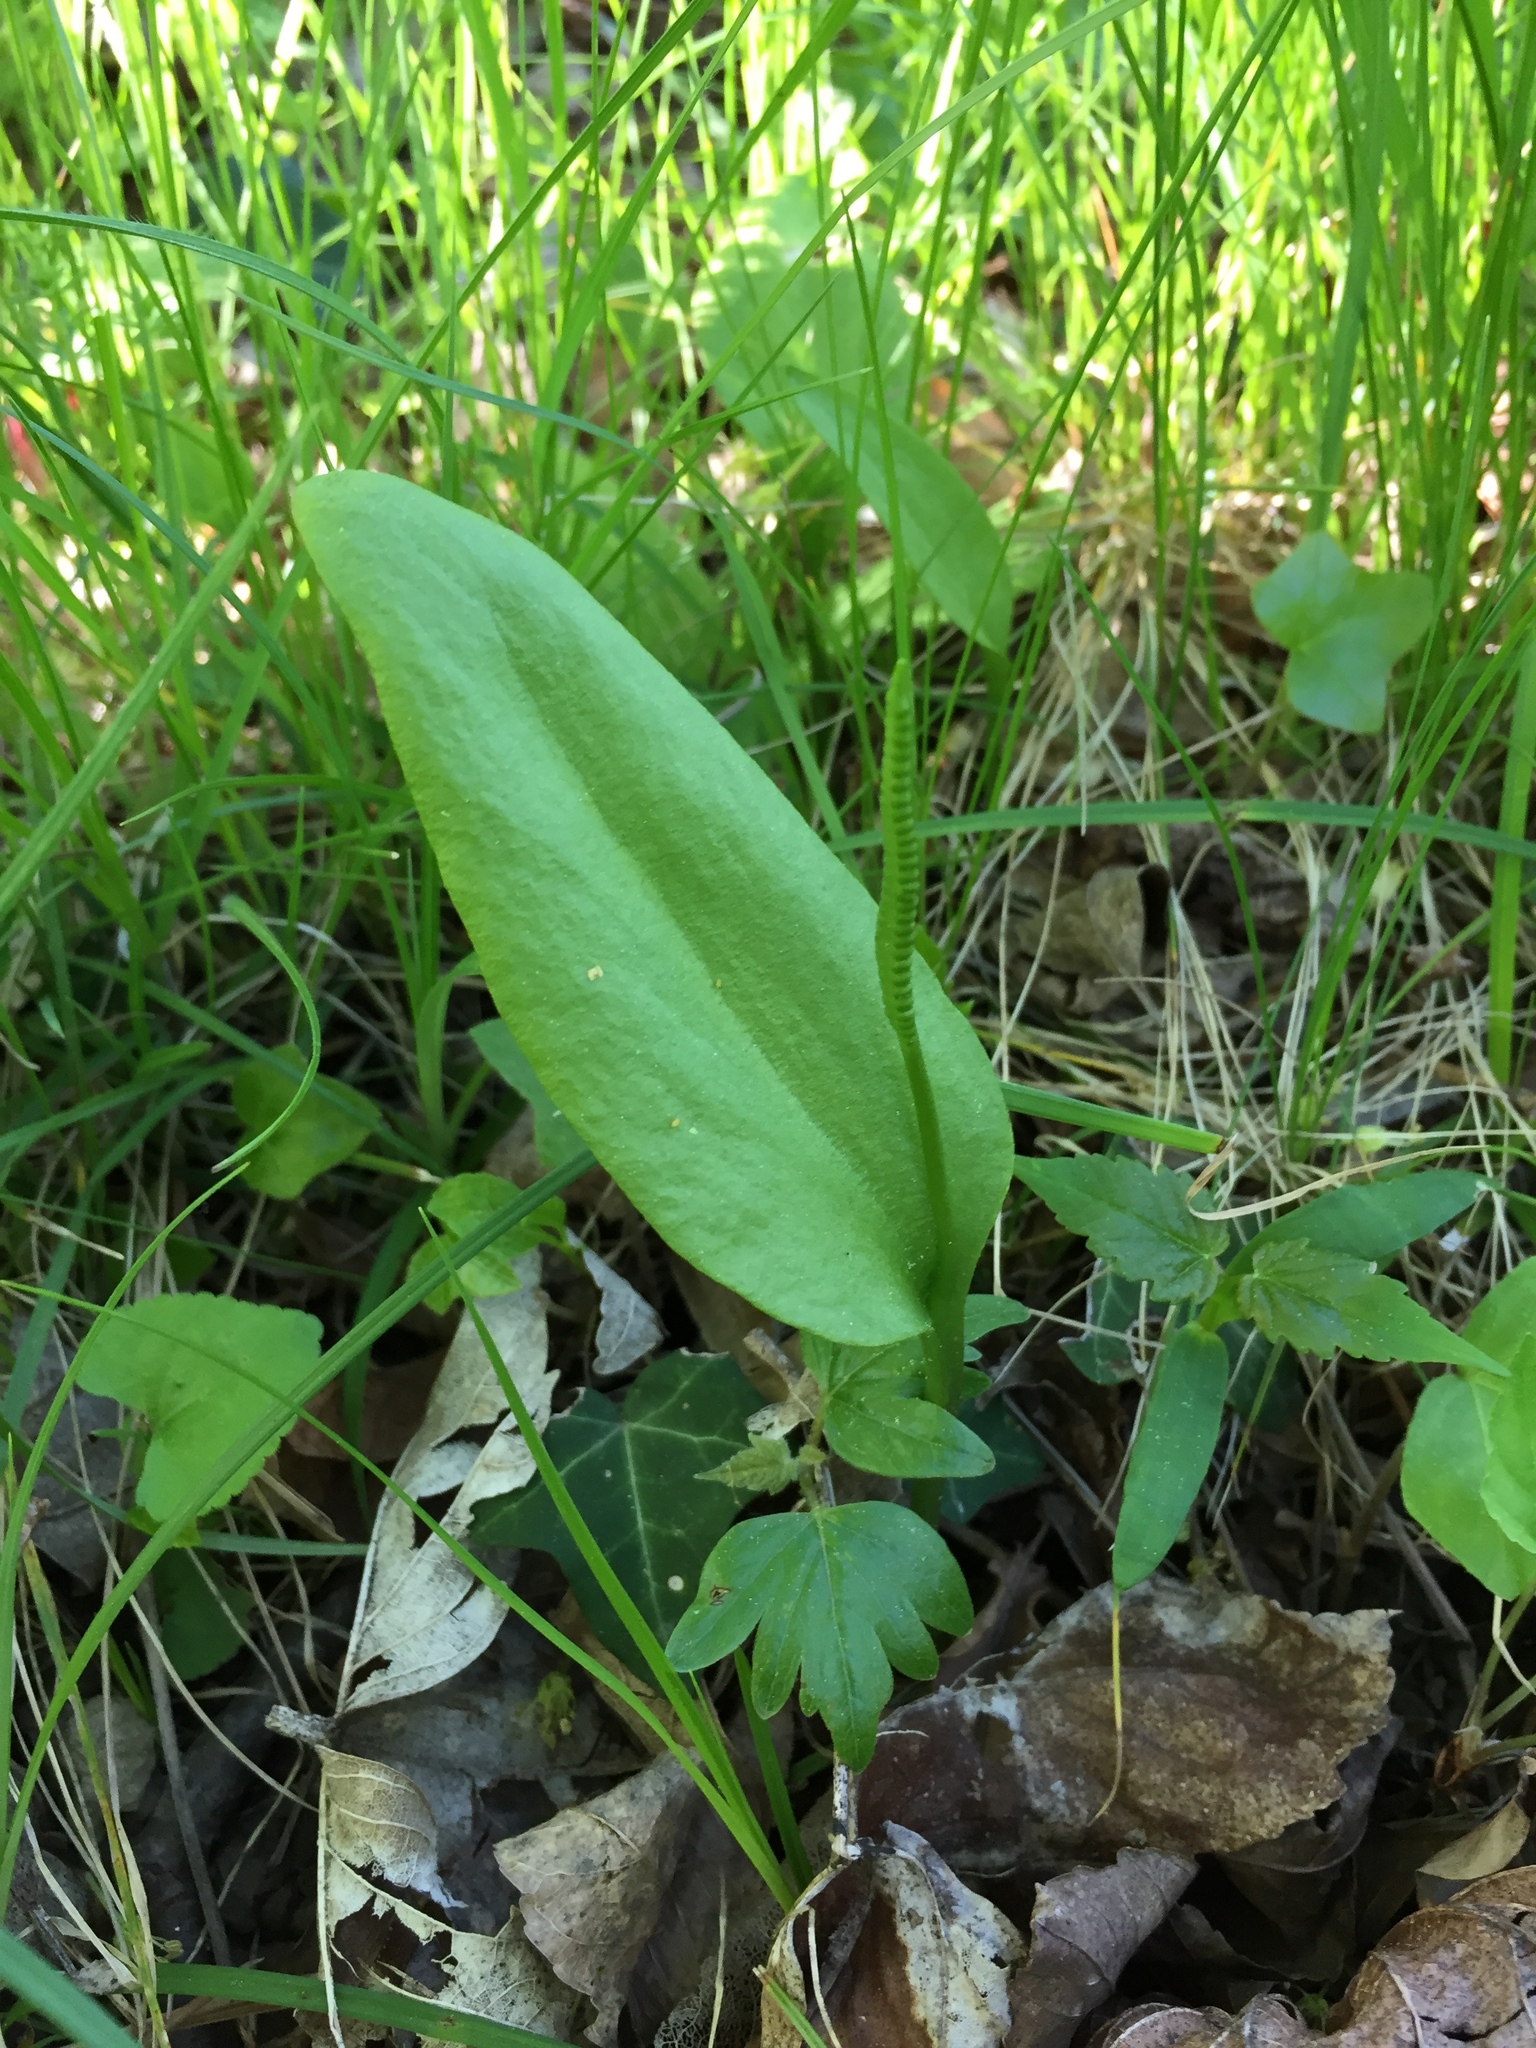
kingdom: Plantae
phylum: Tracheophyta
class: Polypodiopsida
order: Ophioglossales
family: Ophioglossaceae
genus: Ophioglossum
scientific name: Ophioglossum vulgatum
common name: Adder's-tongue
